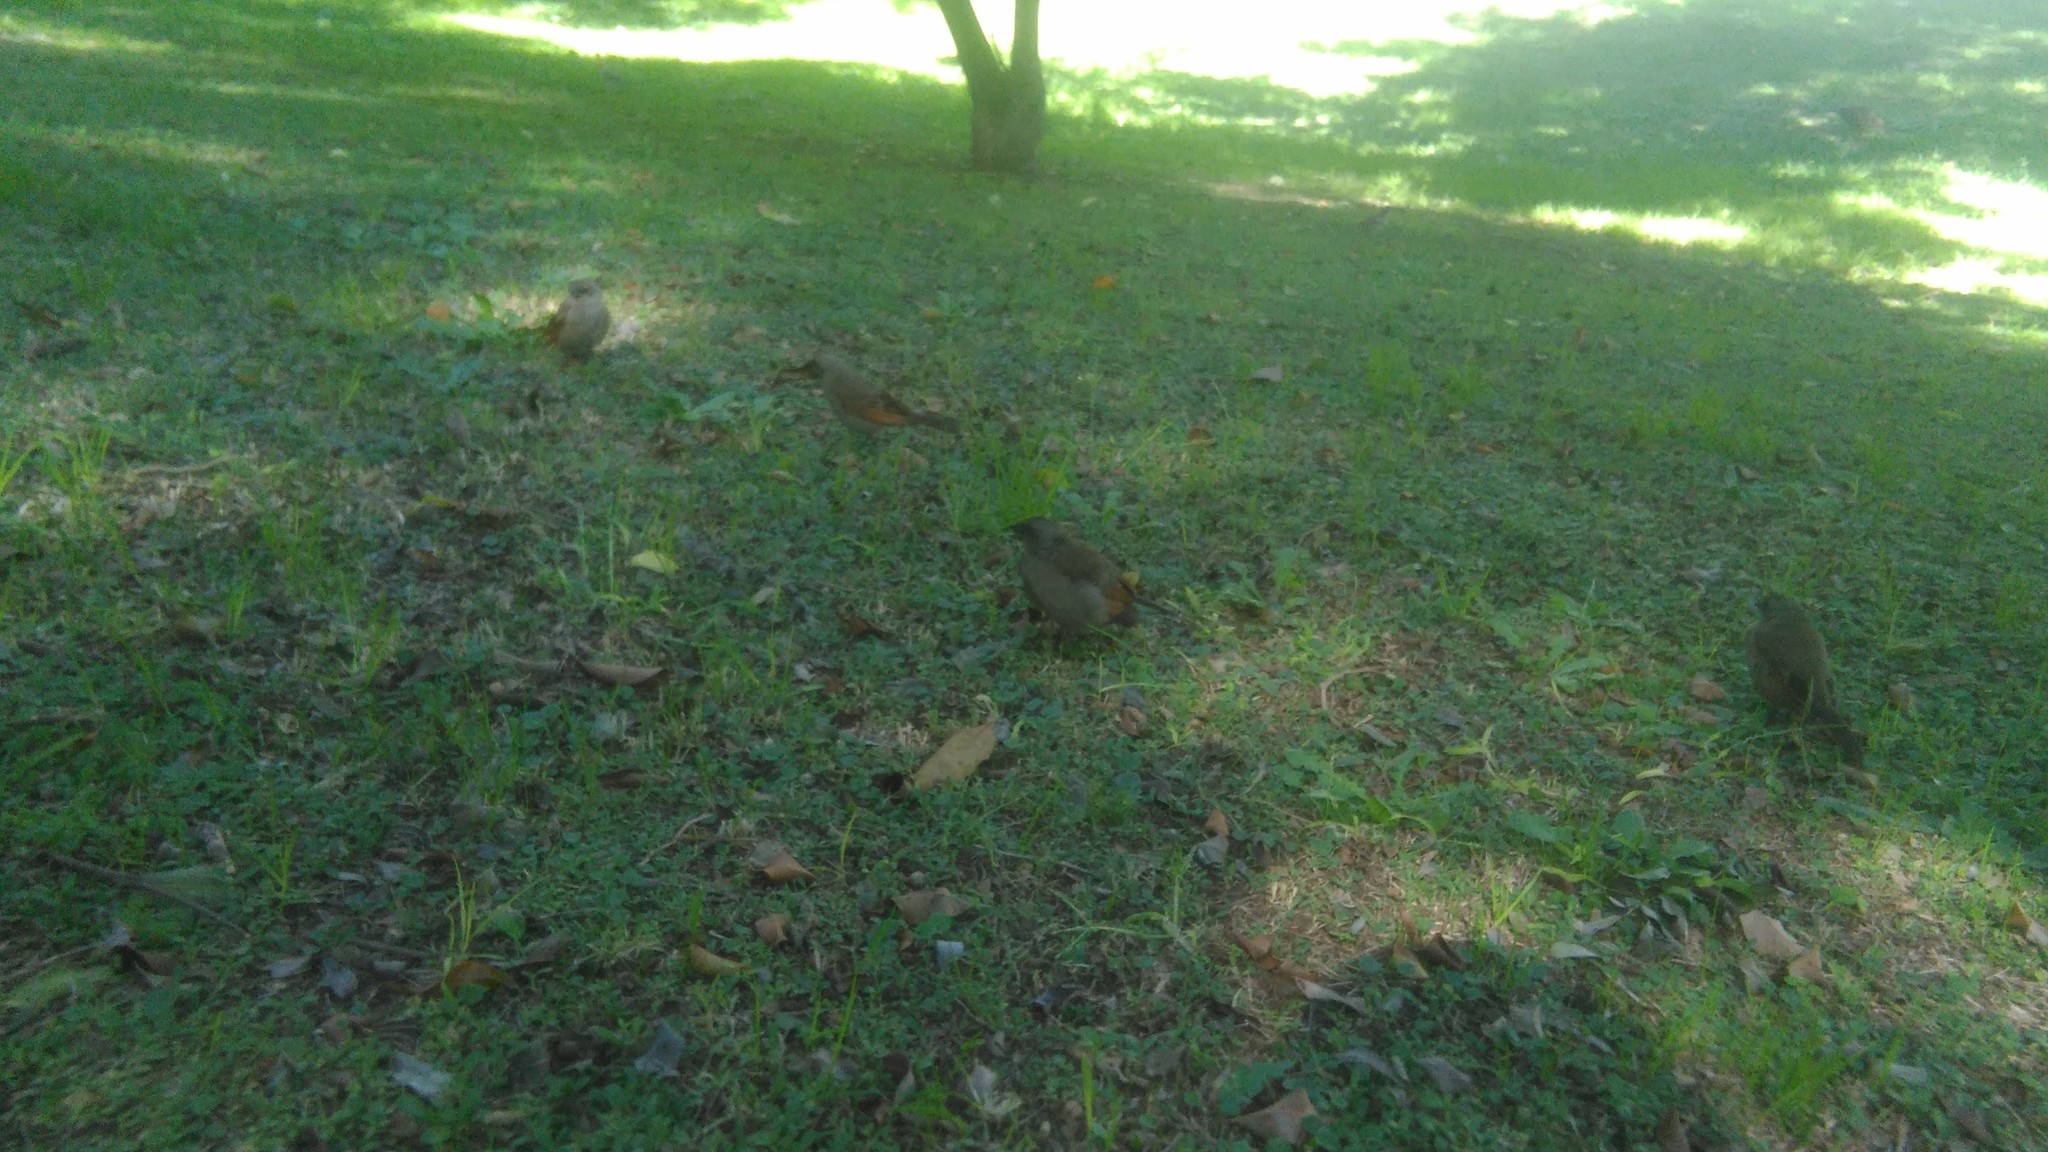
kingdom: Animalia
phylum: Chordata
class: Aves
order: Passeriformes
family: Icteridae
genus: Agelaioides
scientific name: Agelaioides badius
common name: Baywing
